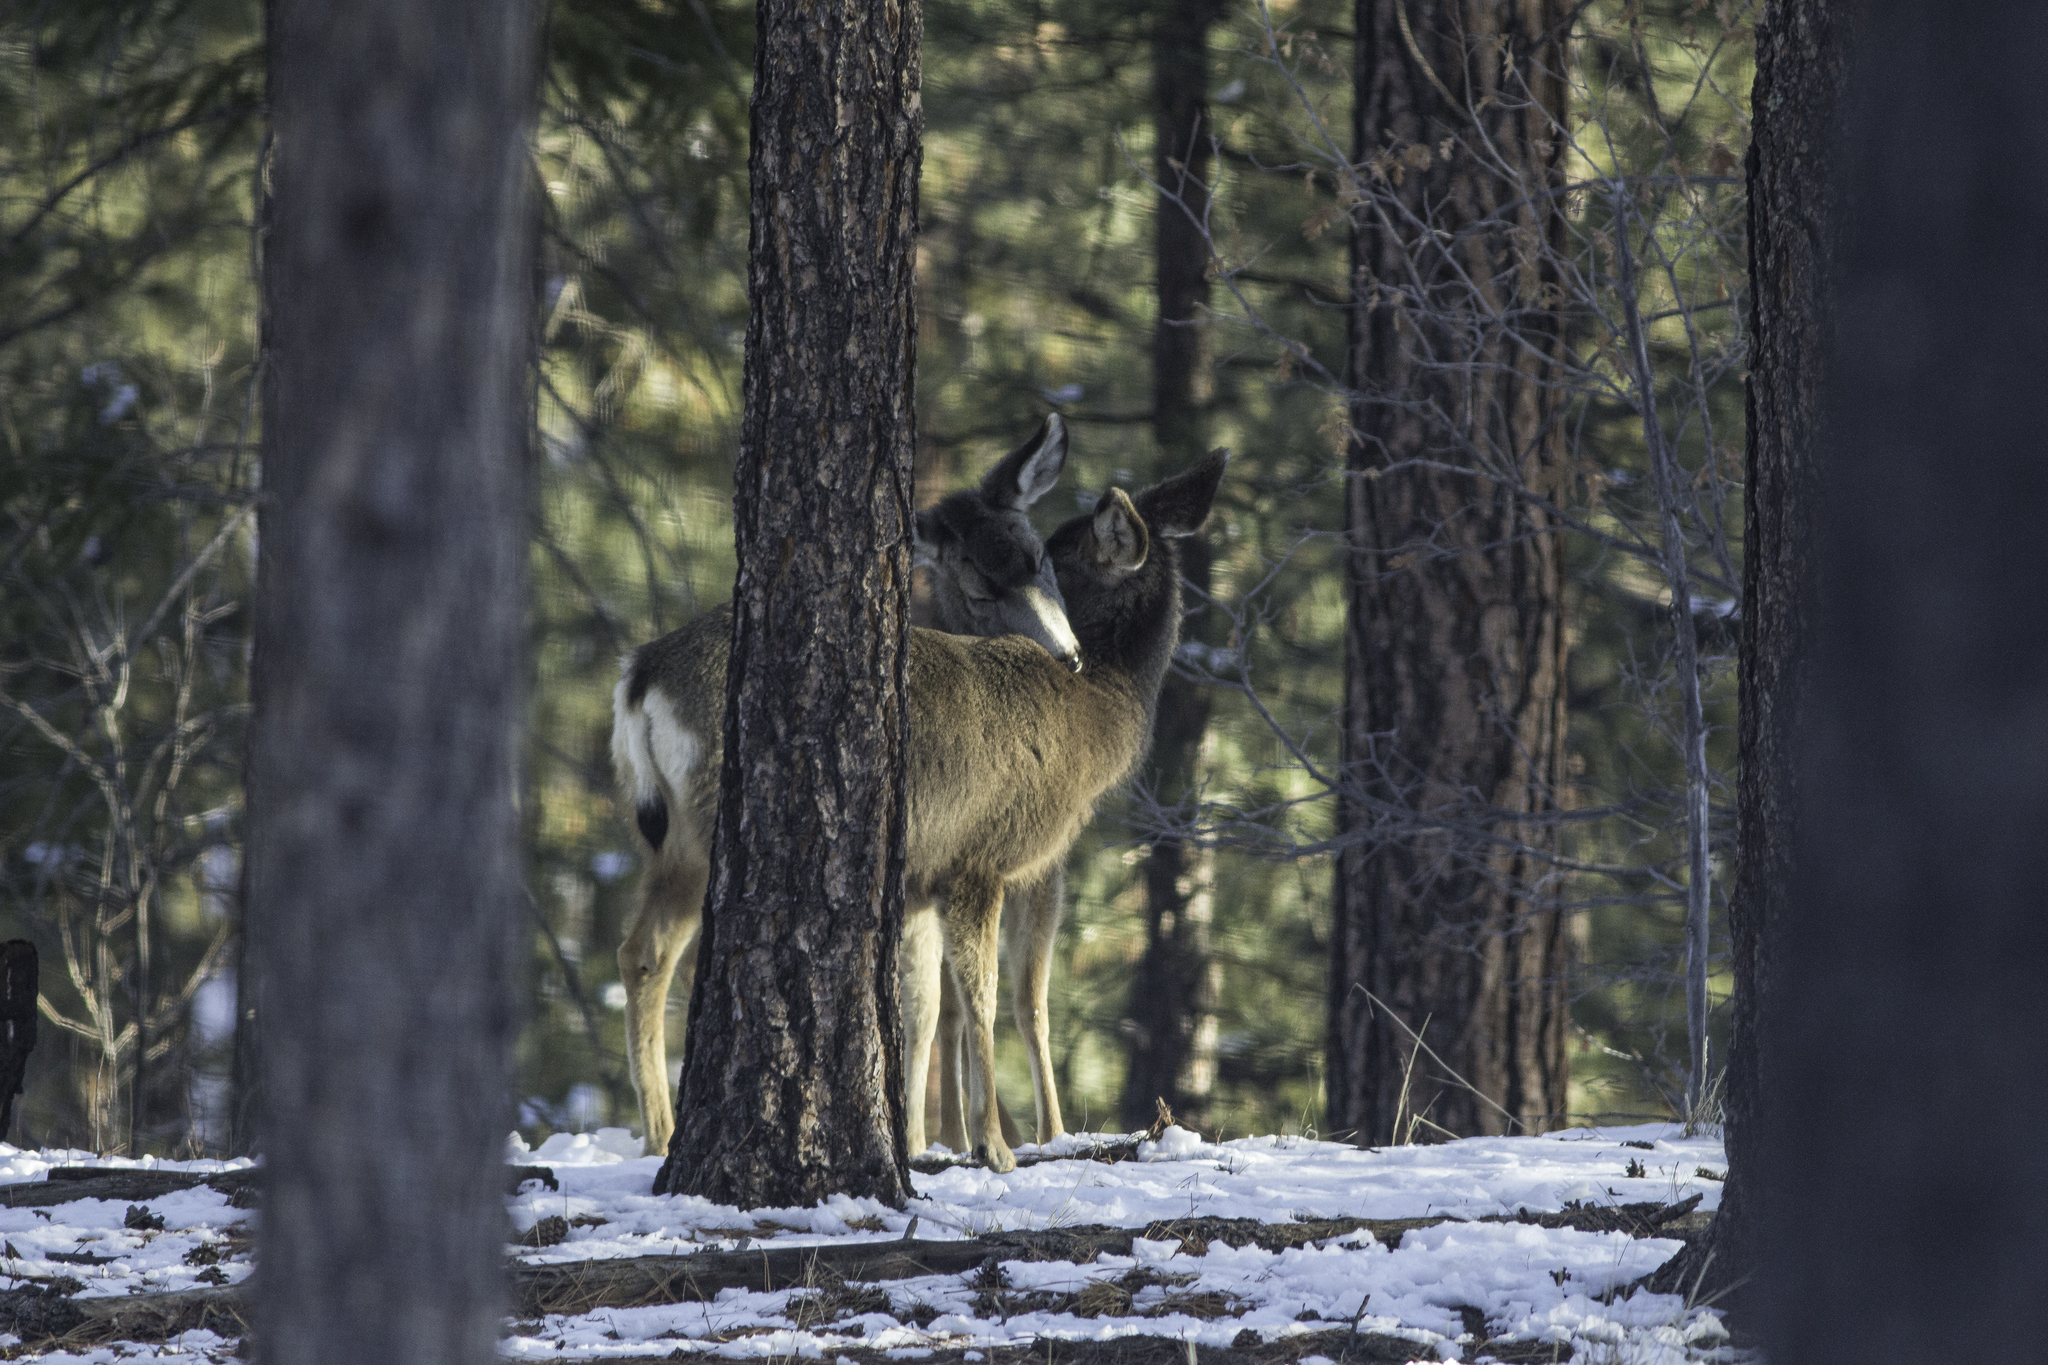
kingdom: Animalia
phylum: Chordata
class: Mammalia
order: Artiodactyla
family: Cervidae
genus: Odocoileus
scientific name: Odocoileus hemionus
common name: Mule deer
